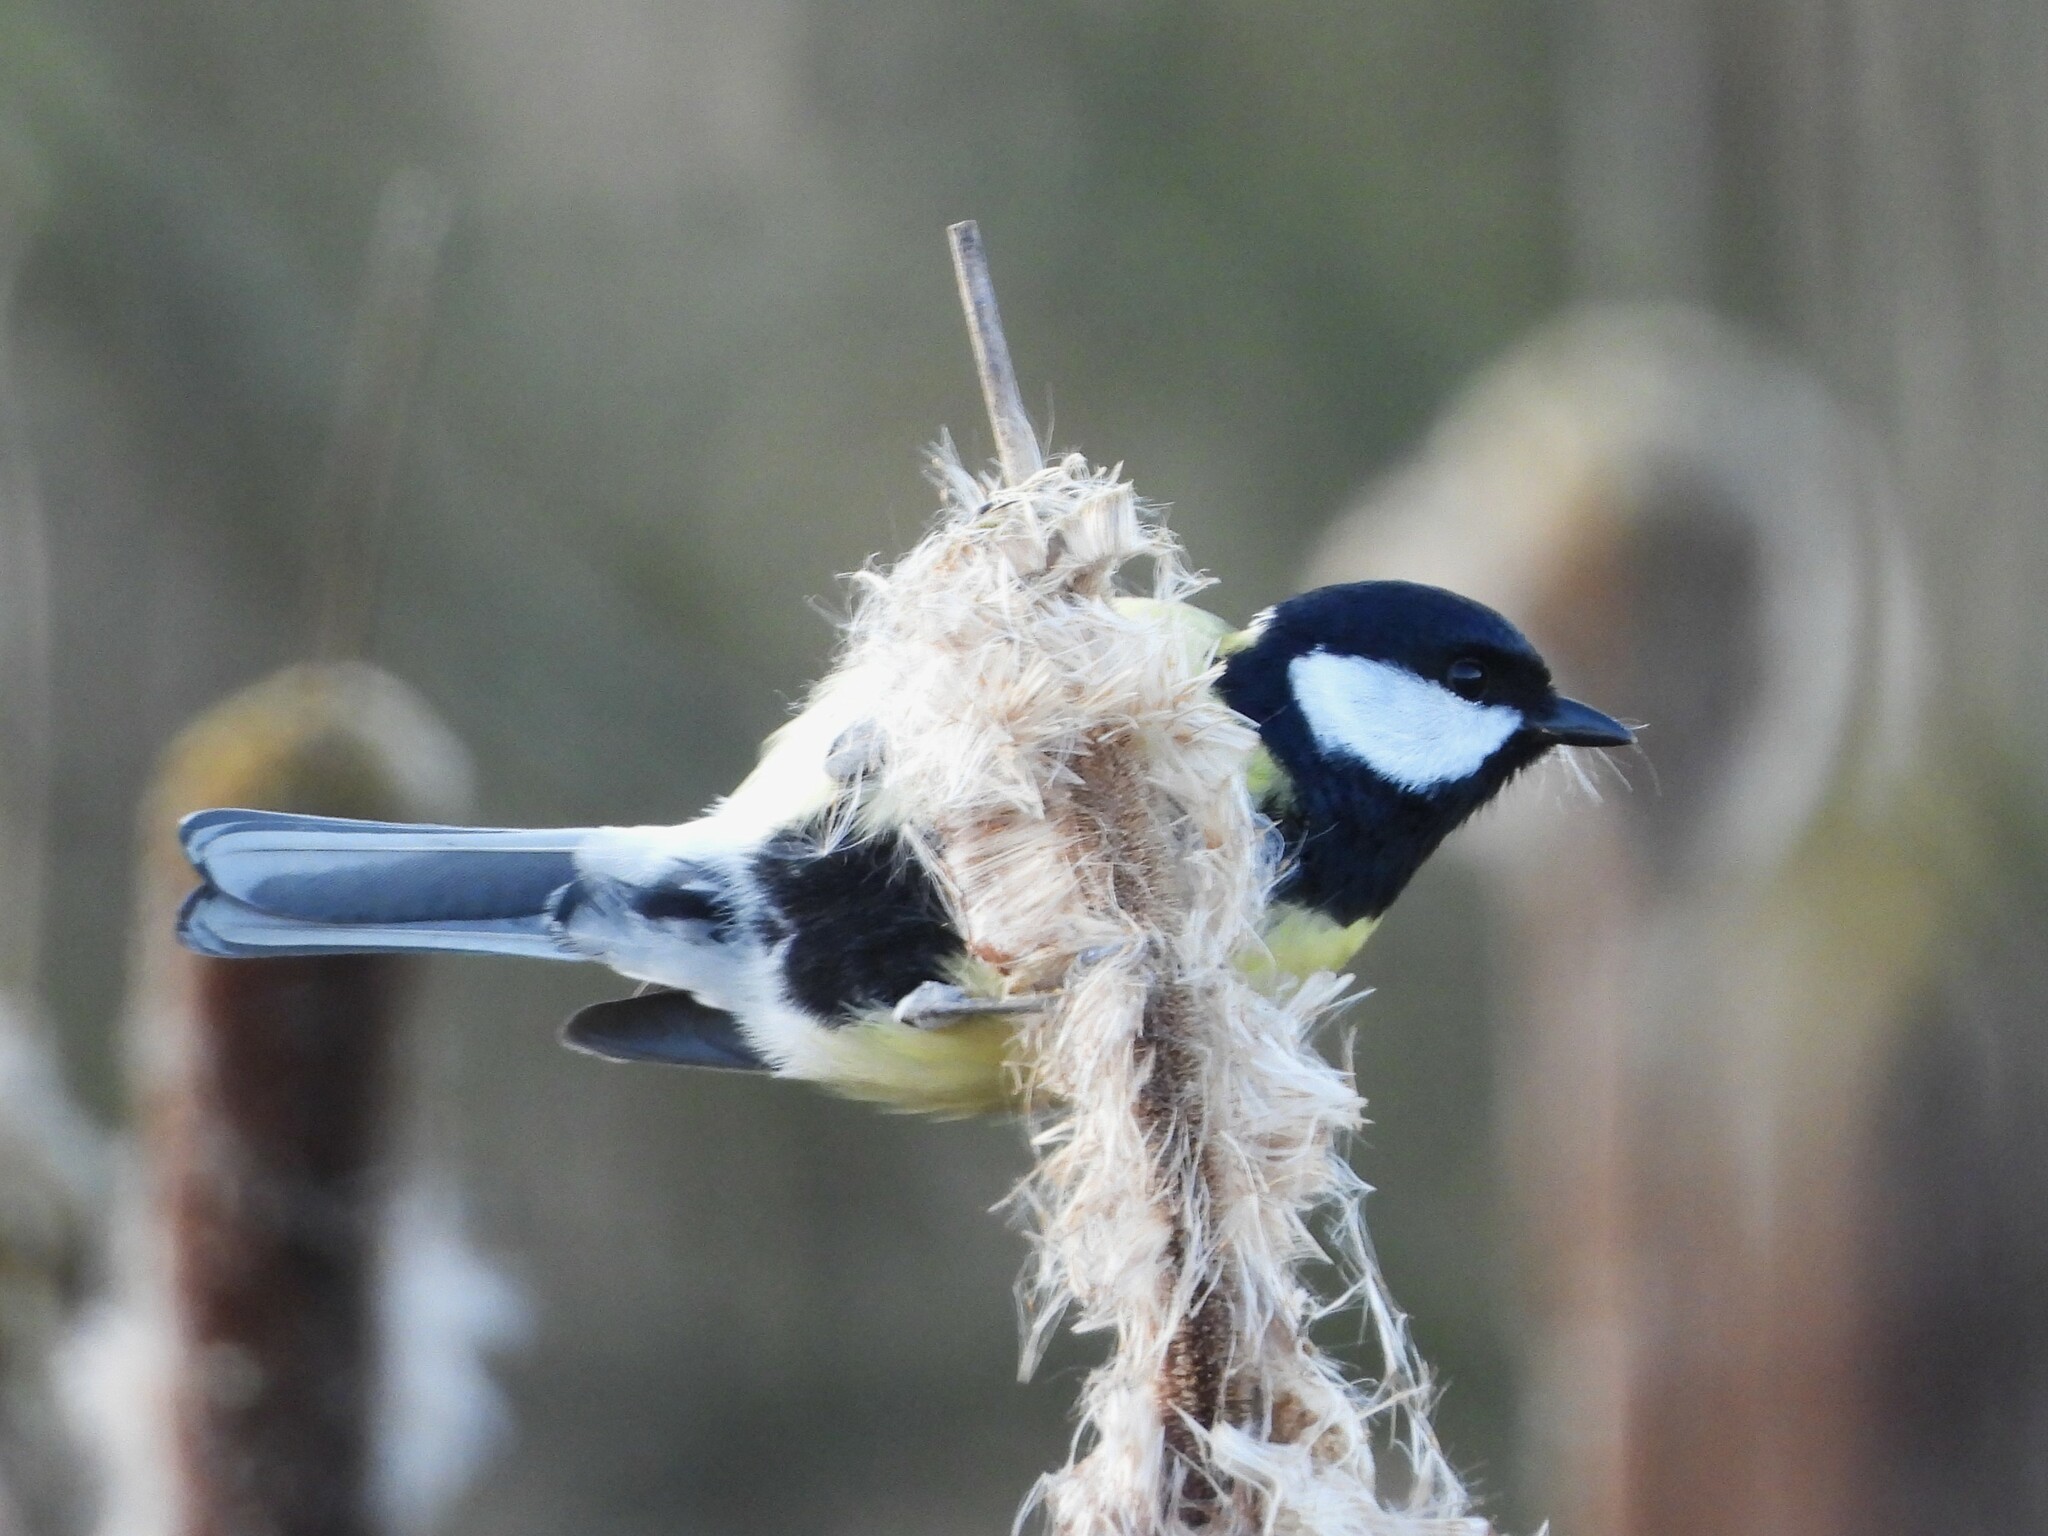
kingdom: Animalia
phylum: Chordata
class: Aves
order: Passeriformes
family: Paridae
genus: Parus
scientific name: Parus major
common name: Great tit
